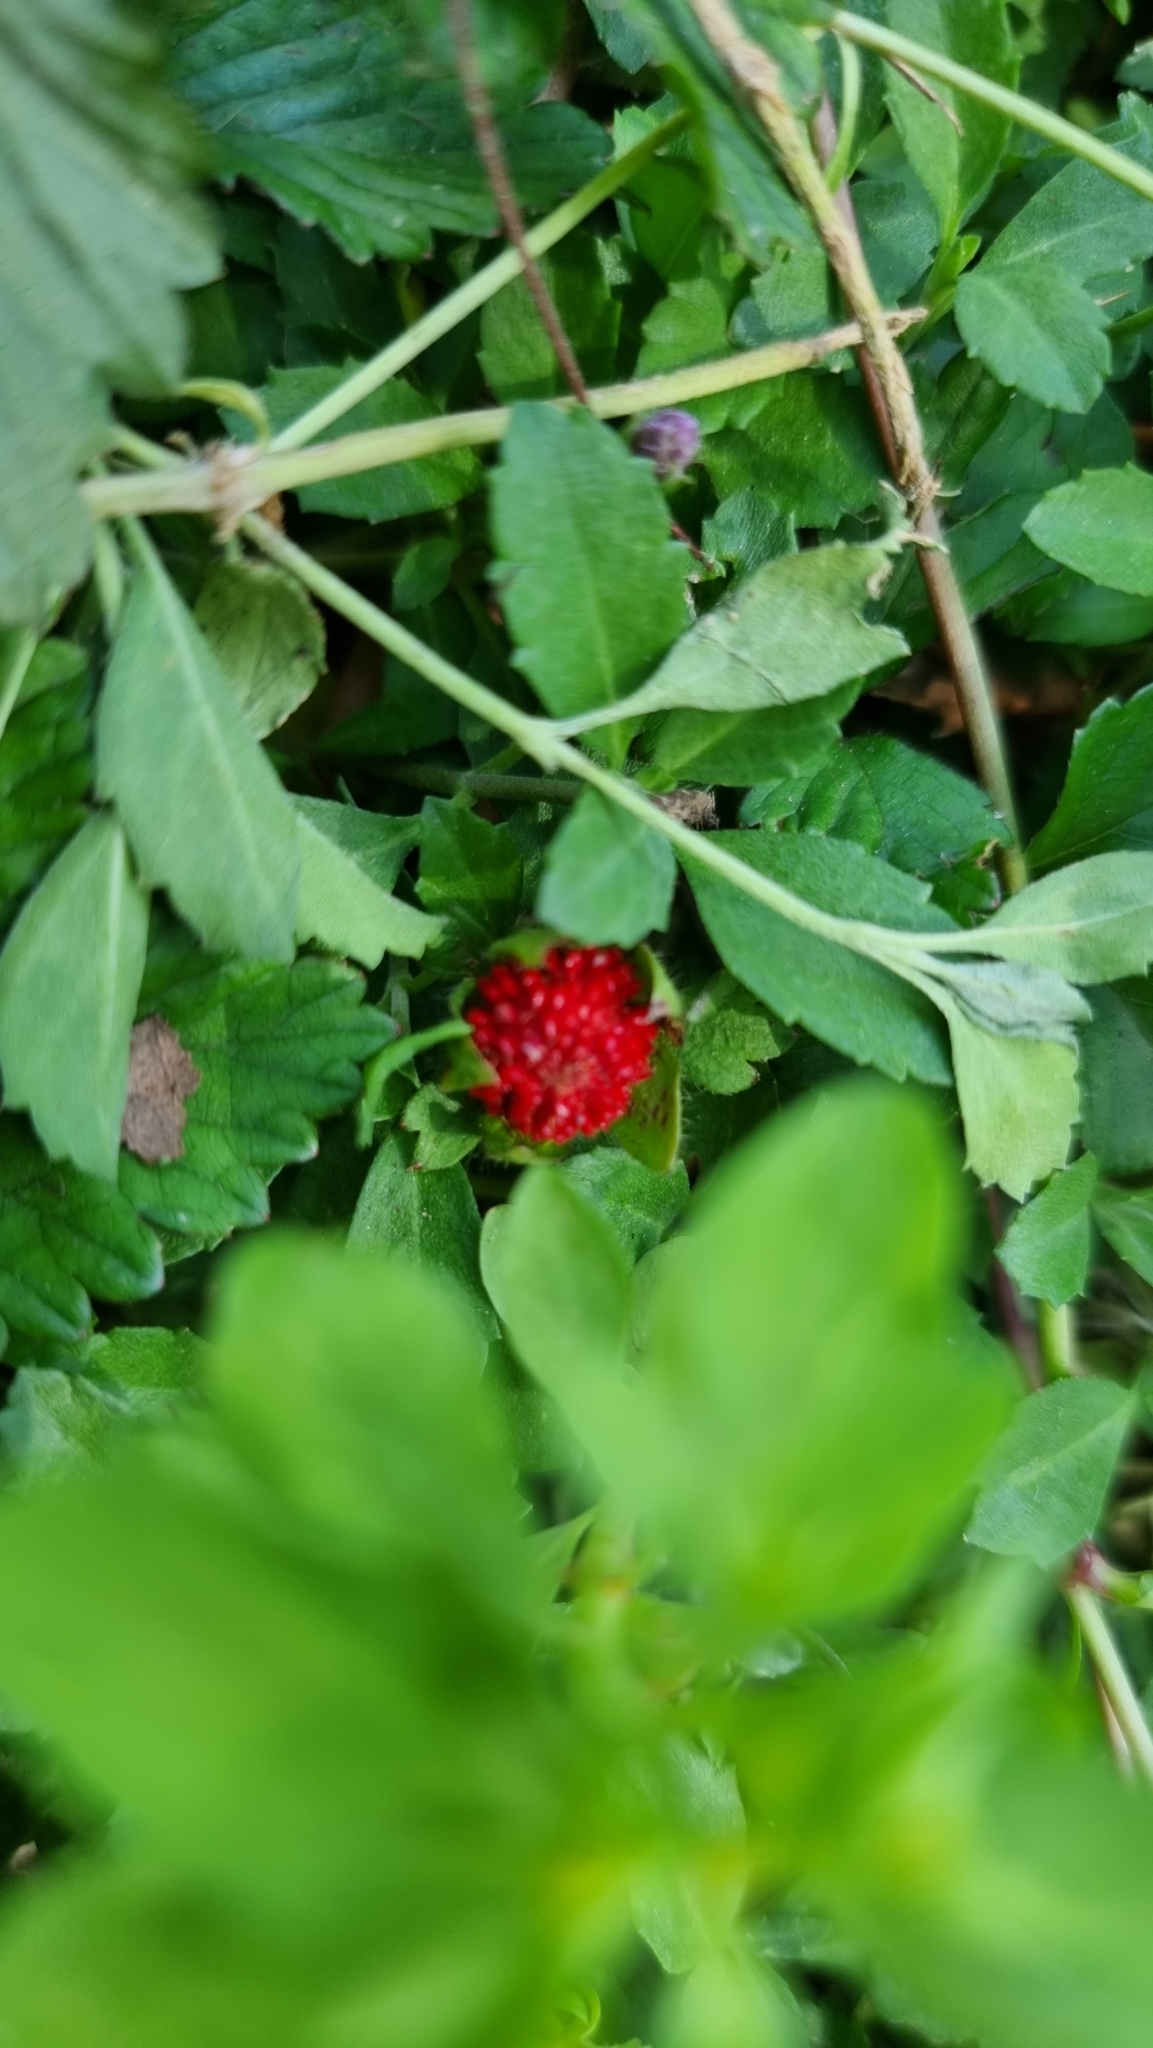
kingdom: Plantae
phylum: Tracheophyta
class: Magnoliopsida
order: Rosales
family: Rosaceae
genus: Potentilla
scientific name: Potentilla indica
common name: Yellow-flowered strawberry
